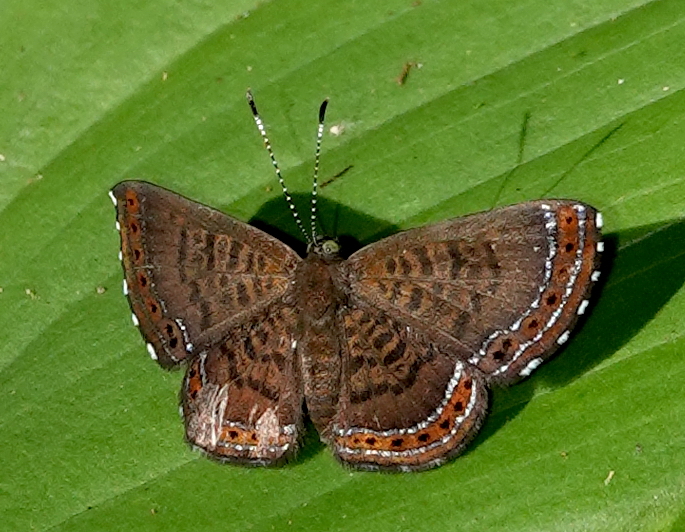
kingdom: Animalia
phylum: Arthropoda
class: Insecta
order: Lepidoptera
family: Riodinidae
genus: Detritivora
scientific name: Detritivora
